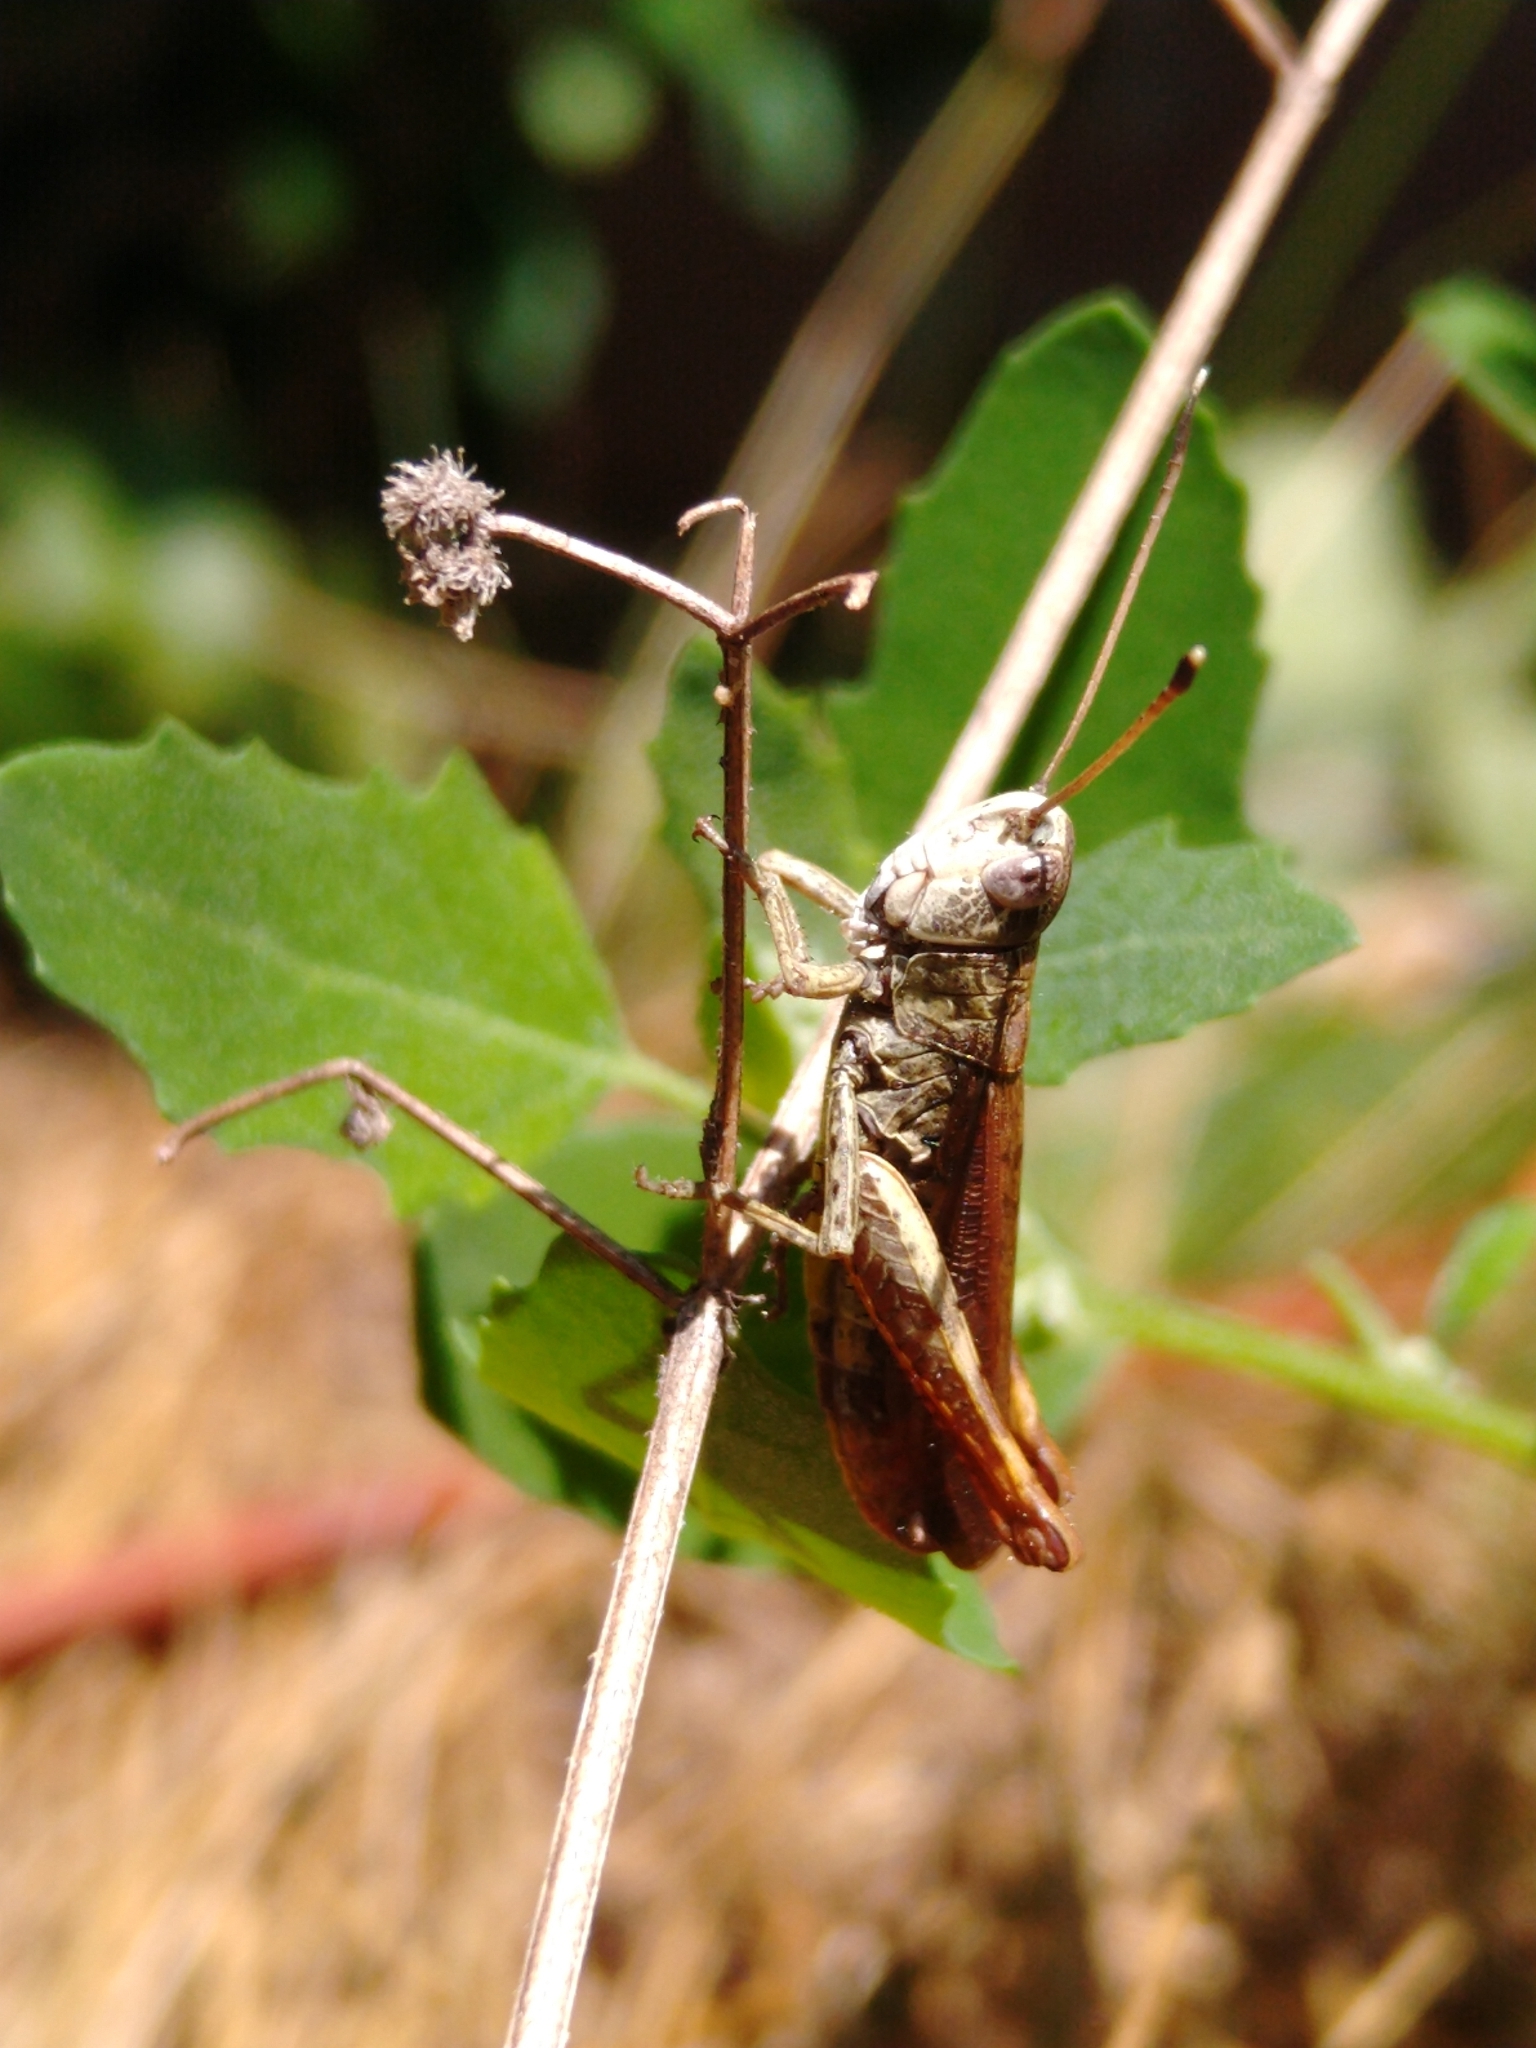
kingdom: Animalia
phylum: Arthropoda
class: Insecta
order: Orthoptera
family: Acrididae
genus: Gomphocerippus
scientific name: Gomphocerippus rufus
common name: Rufous grasshopper
